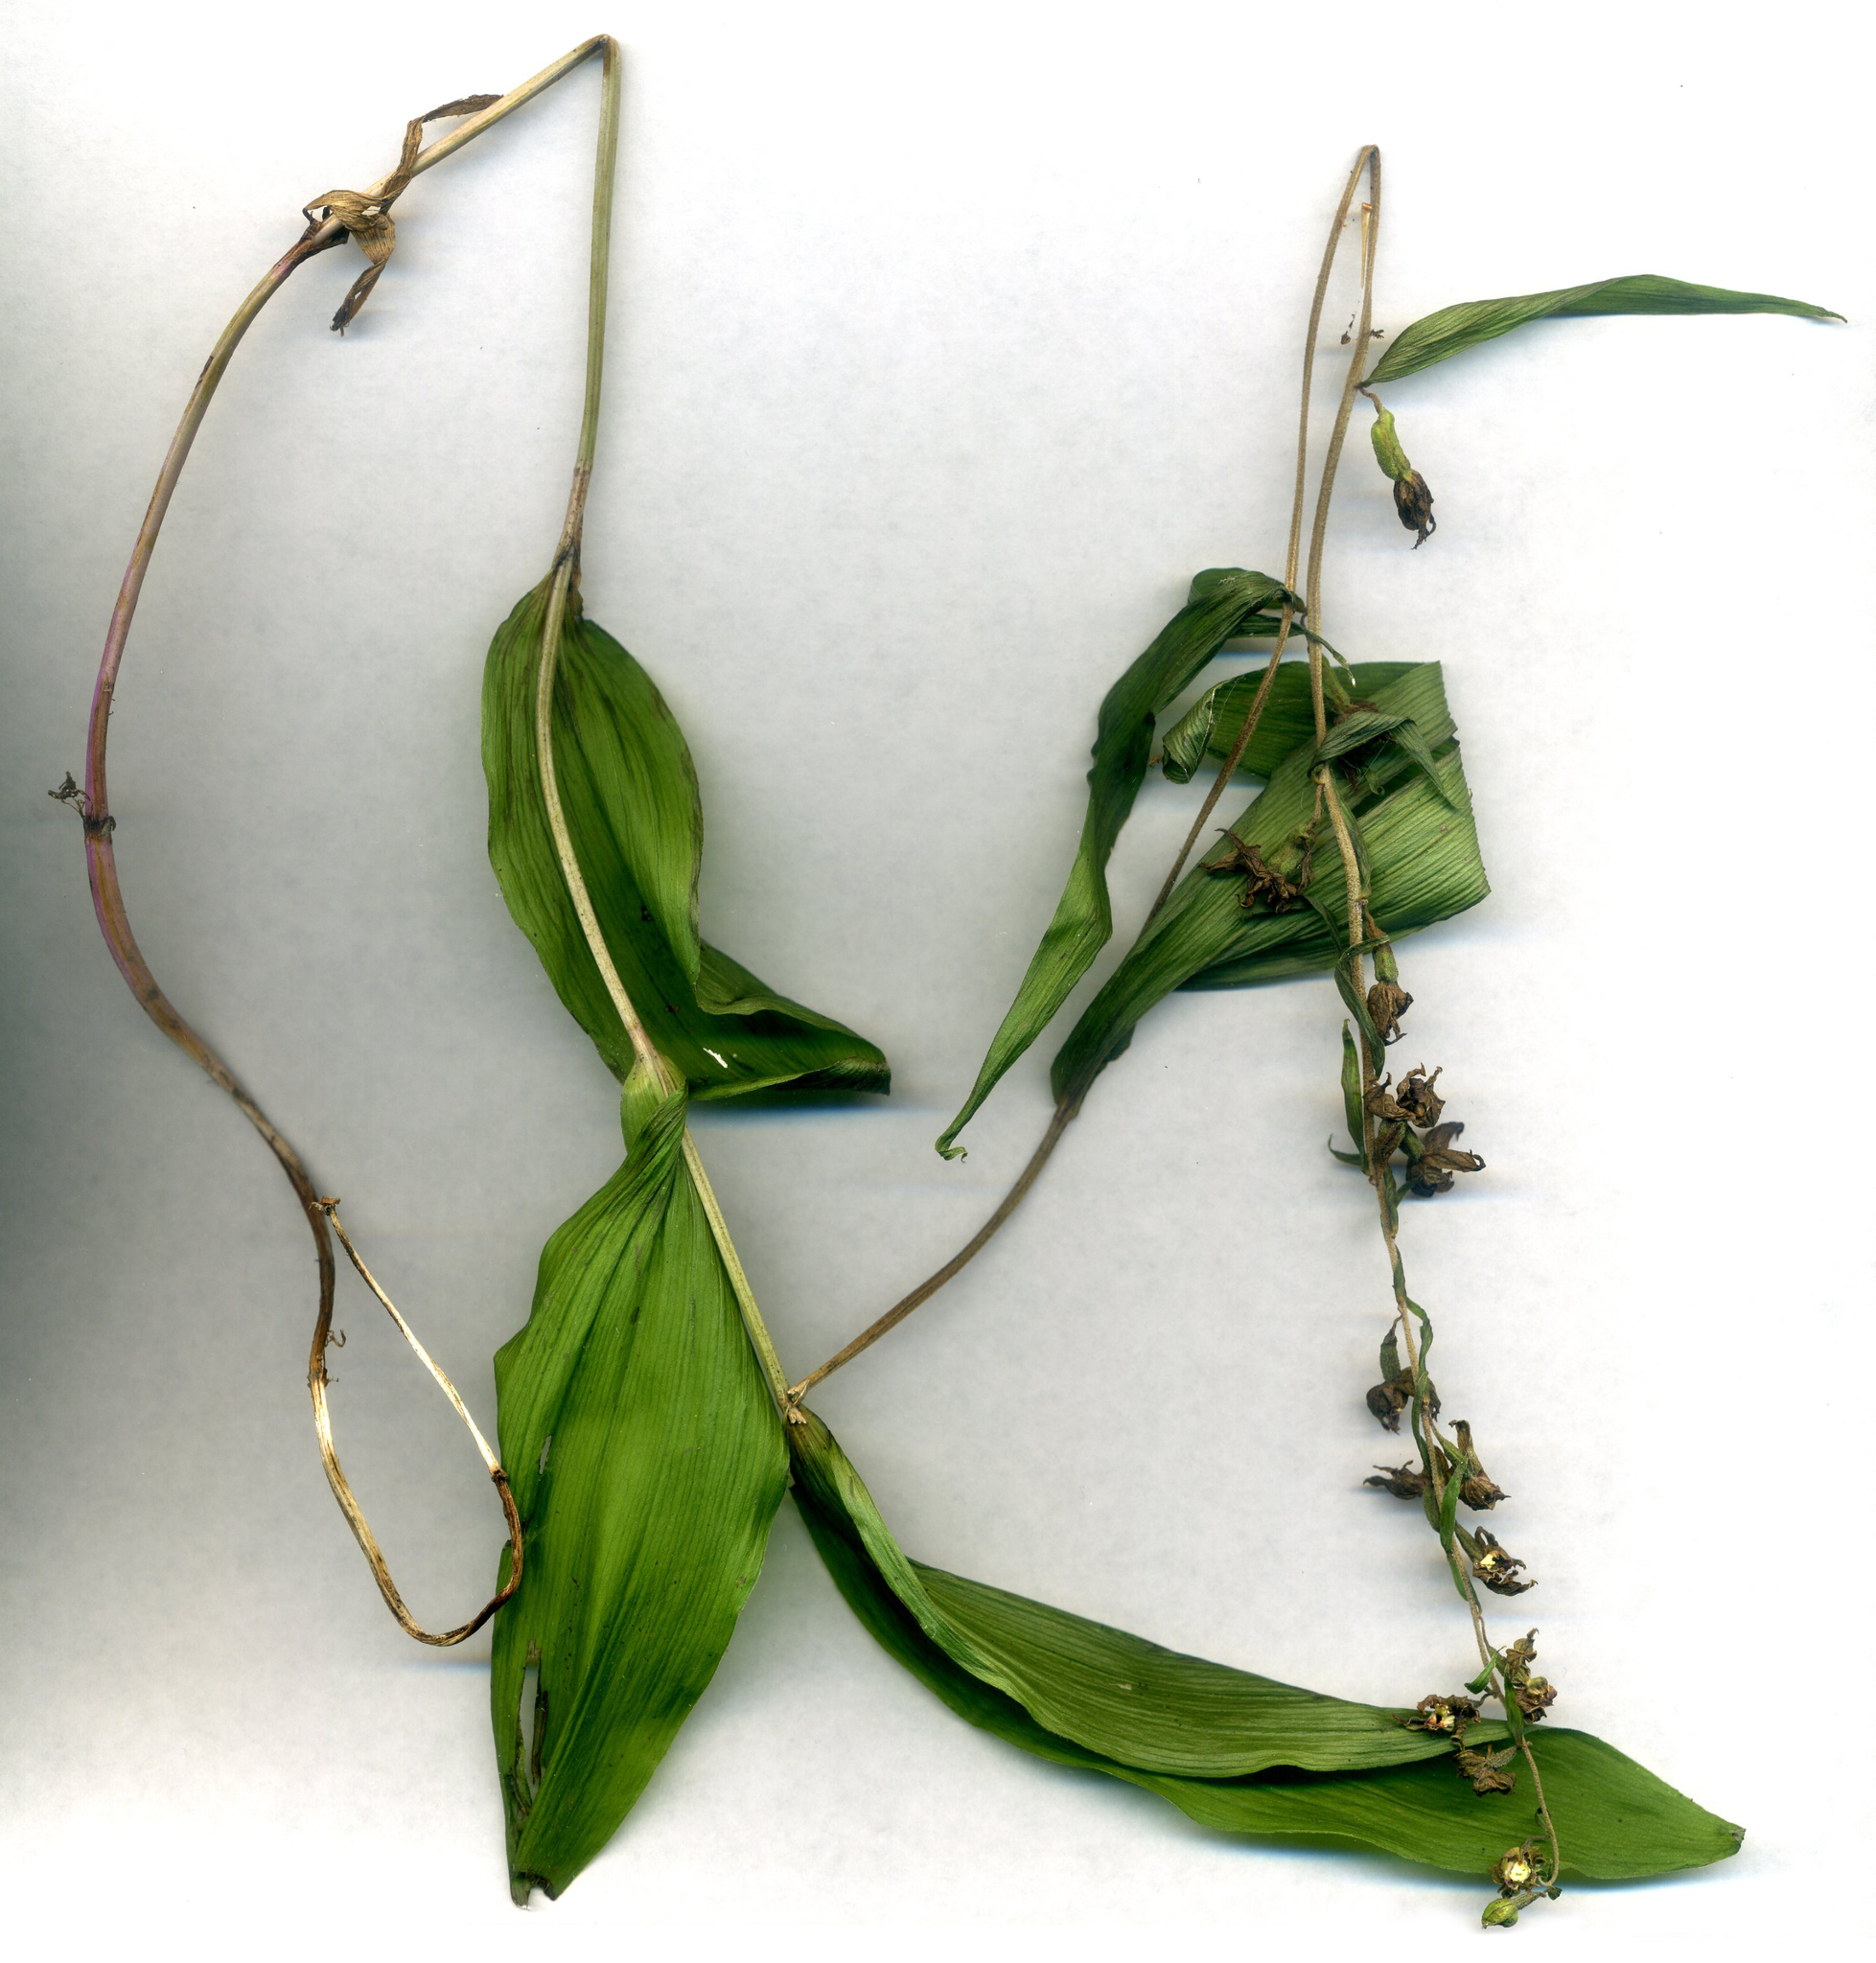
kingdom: Plantae
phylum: Tracheophyta
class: Liliopsida
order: Asparagales
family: Orchidaceae
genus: Epipactis
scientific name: Epipactis helleborine
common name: Broad-leaved helleborine
